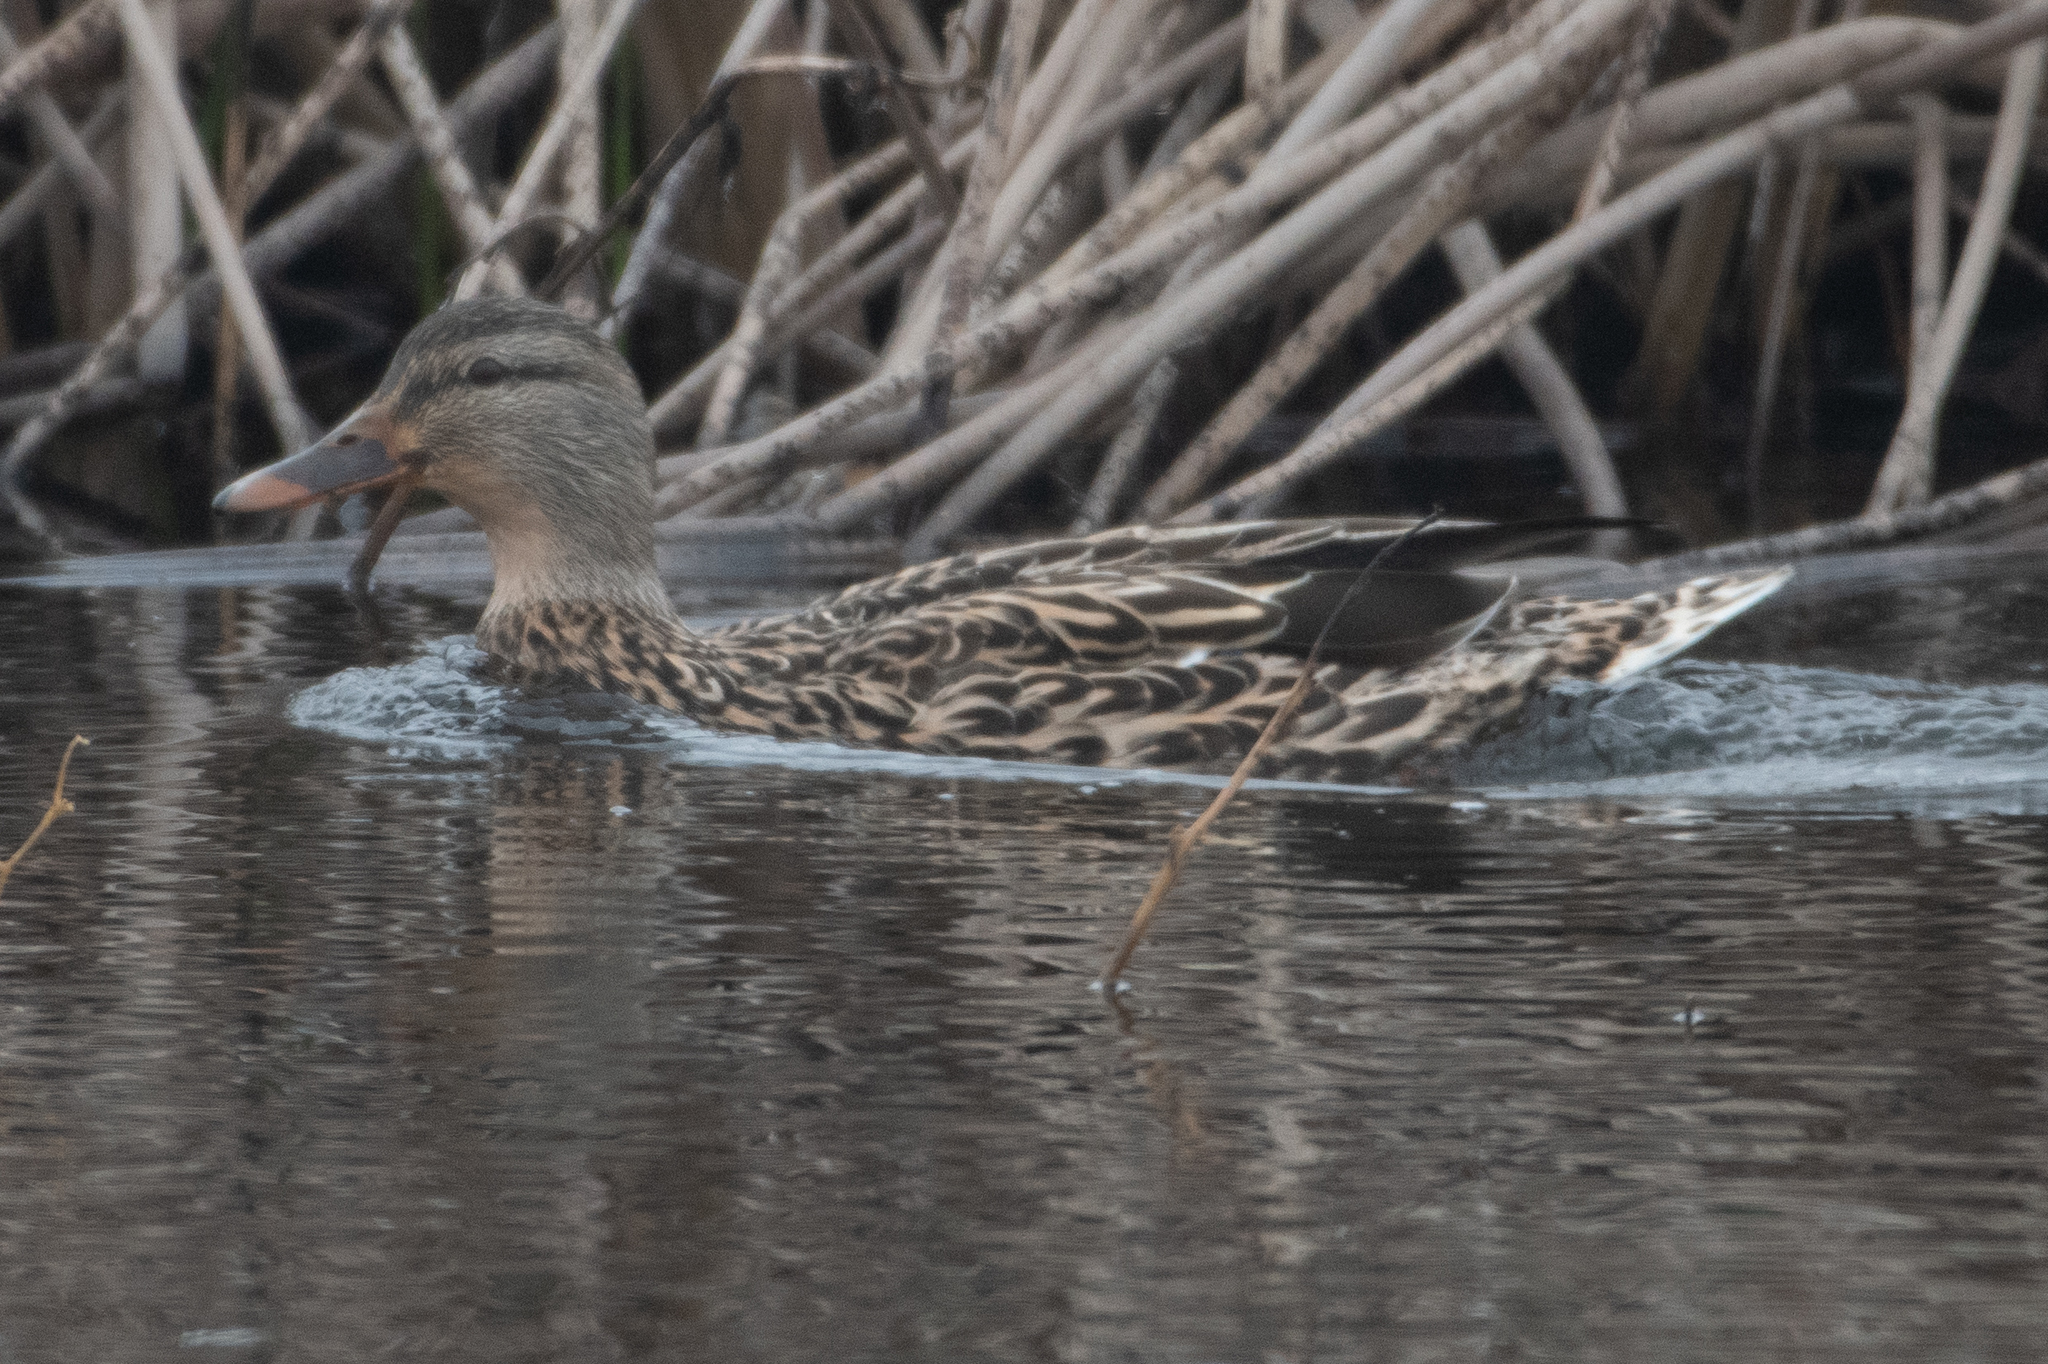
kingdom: Animalia
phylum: Chordata
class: Aves
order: Anseriformes
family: Anatidae
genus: Anas
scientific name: Anas platyrhynchos
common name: Mallard
